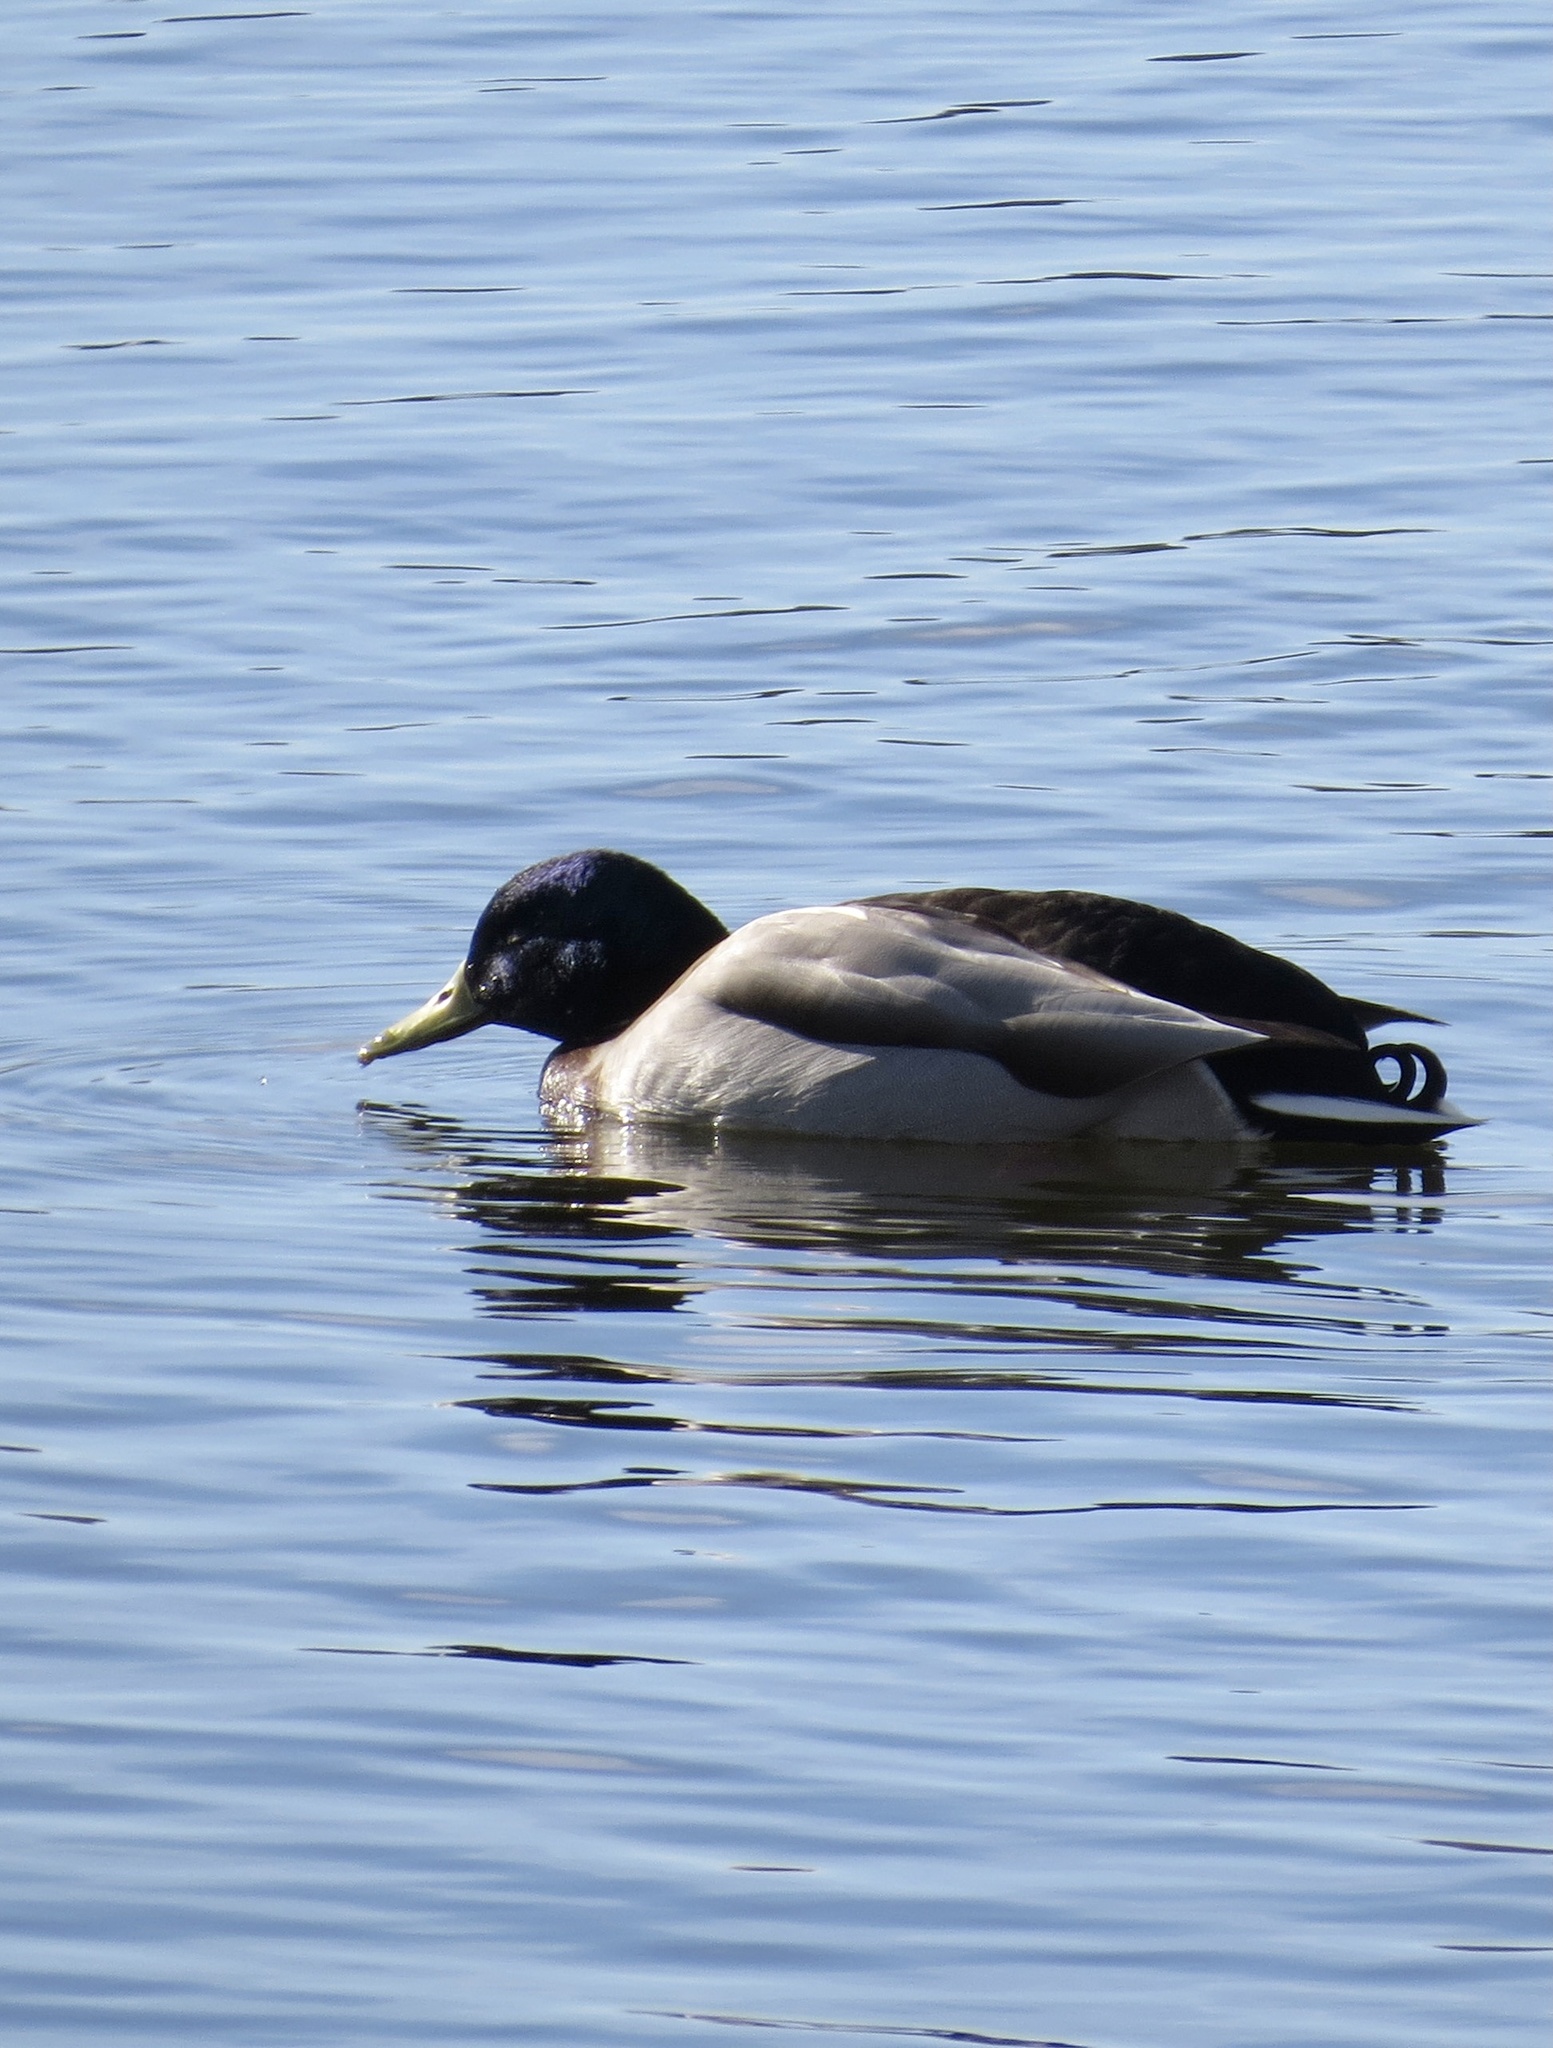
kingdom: Animalia
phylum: Chordata
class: Aves
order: Anseriformes
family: Anatidae
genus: Anas
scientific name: Anas platyrhynchos
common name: Mallard
